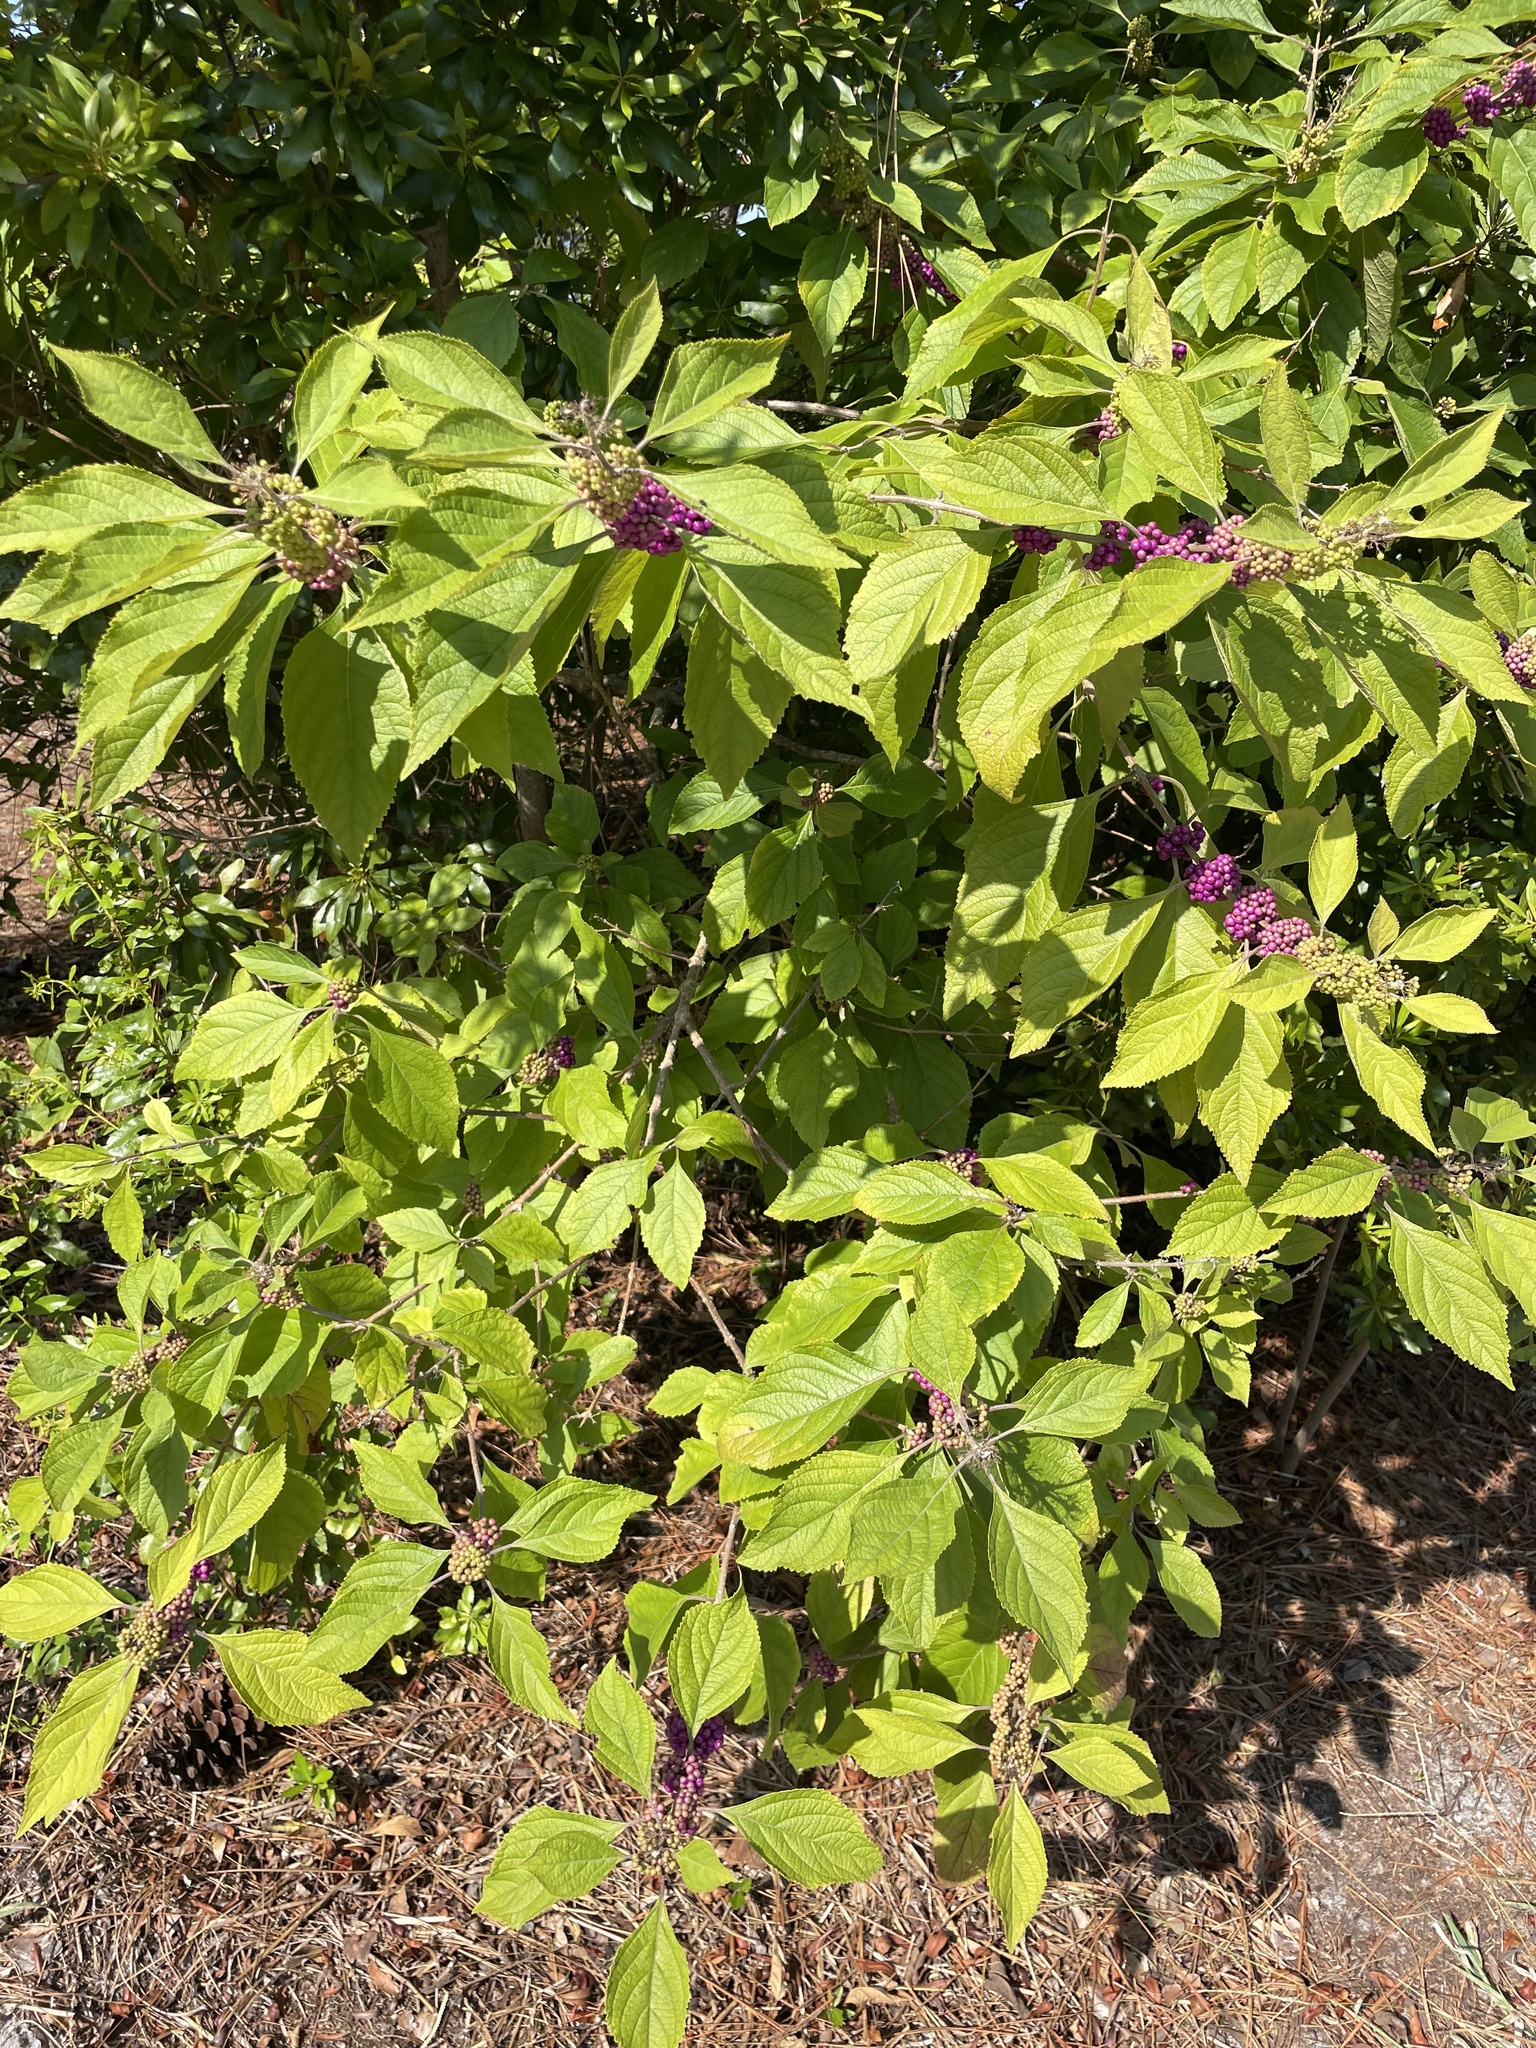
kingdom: Plantae
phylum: Tracheophyta
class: Magnoliopsida
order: Lamiales
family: Lamiaceae
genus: Callicarpa
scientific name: Callicarpa americana
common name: American beautyberry
